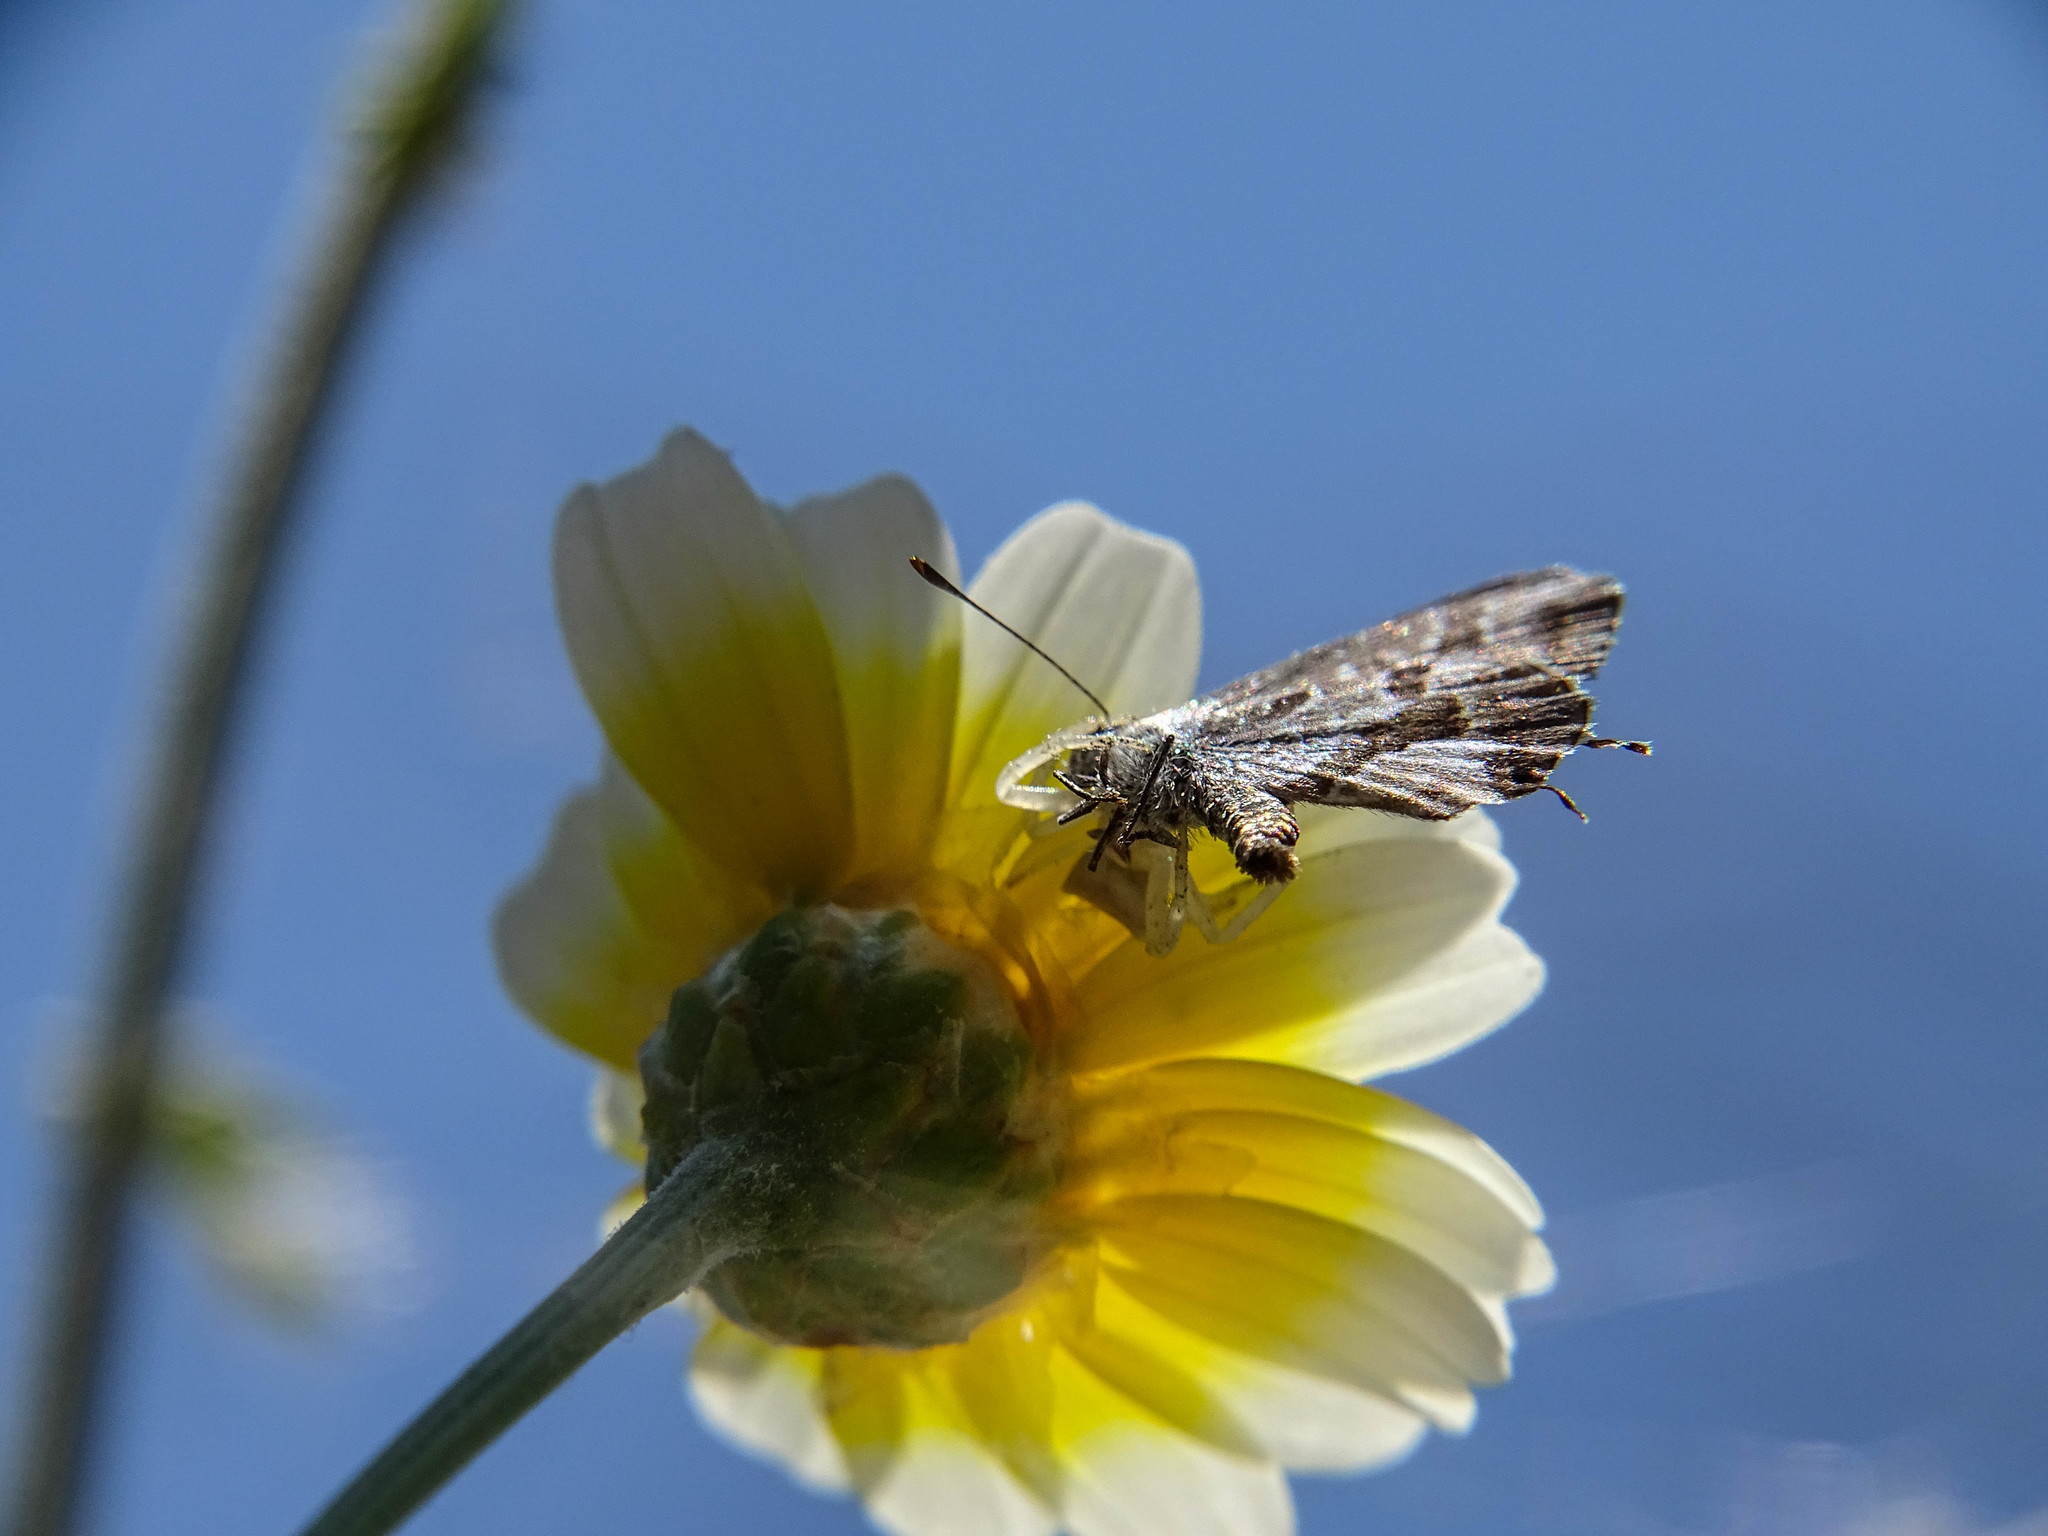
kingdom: Animalia
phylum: Arthropoda
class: Arachnida
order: Araneae
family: Thomisidae
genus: Thomisus
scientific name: Thomisus onustus
